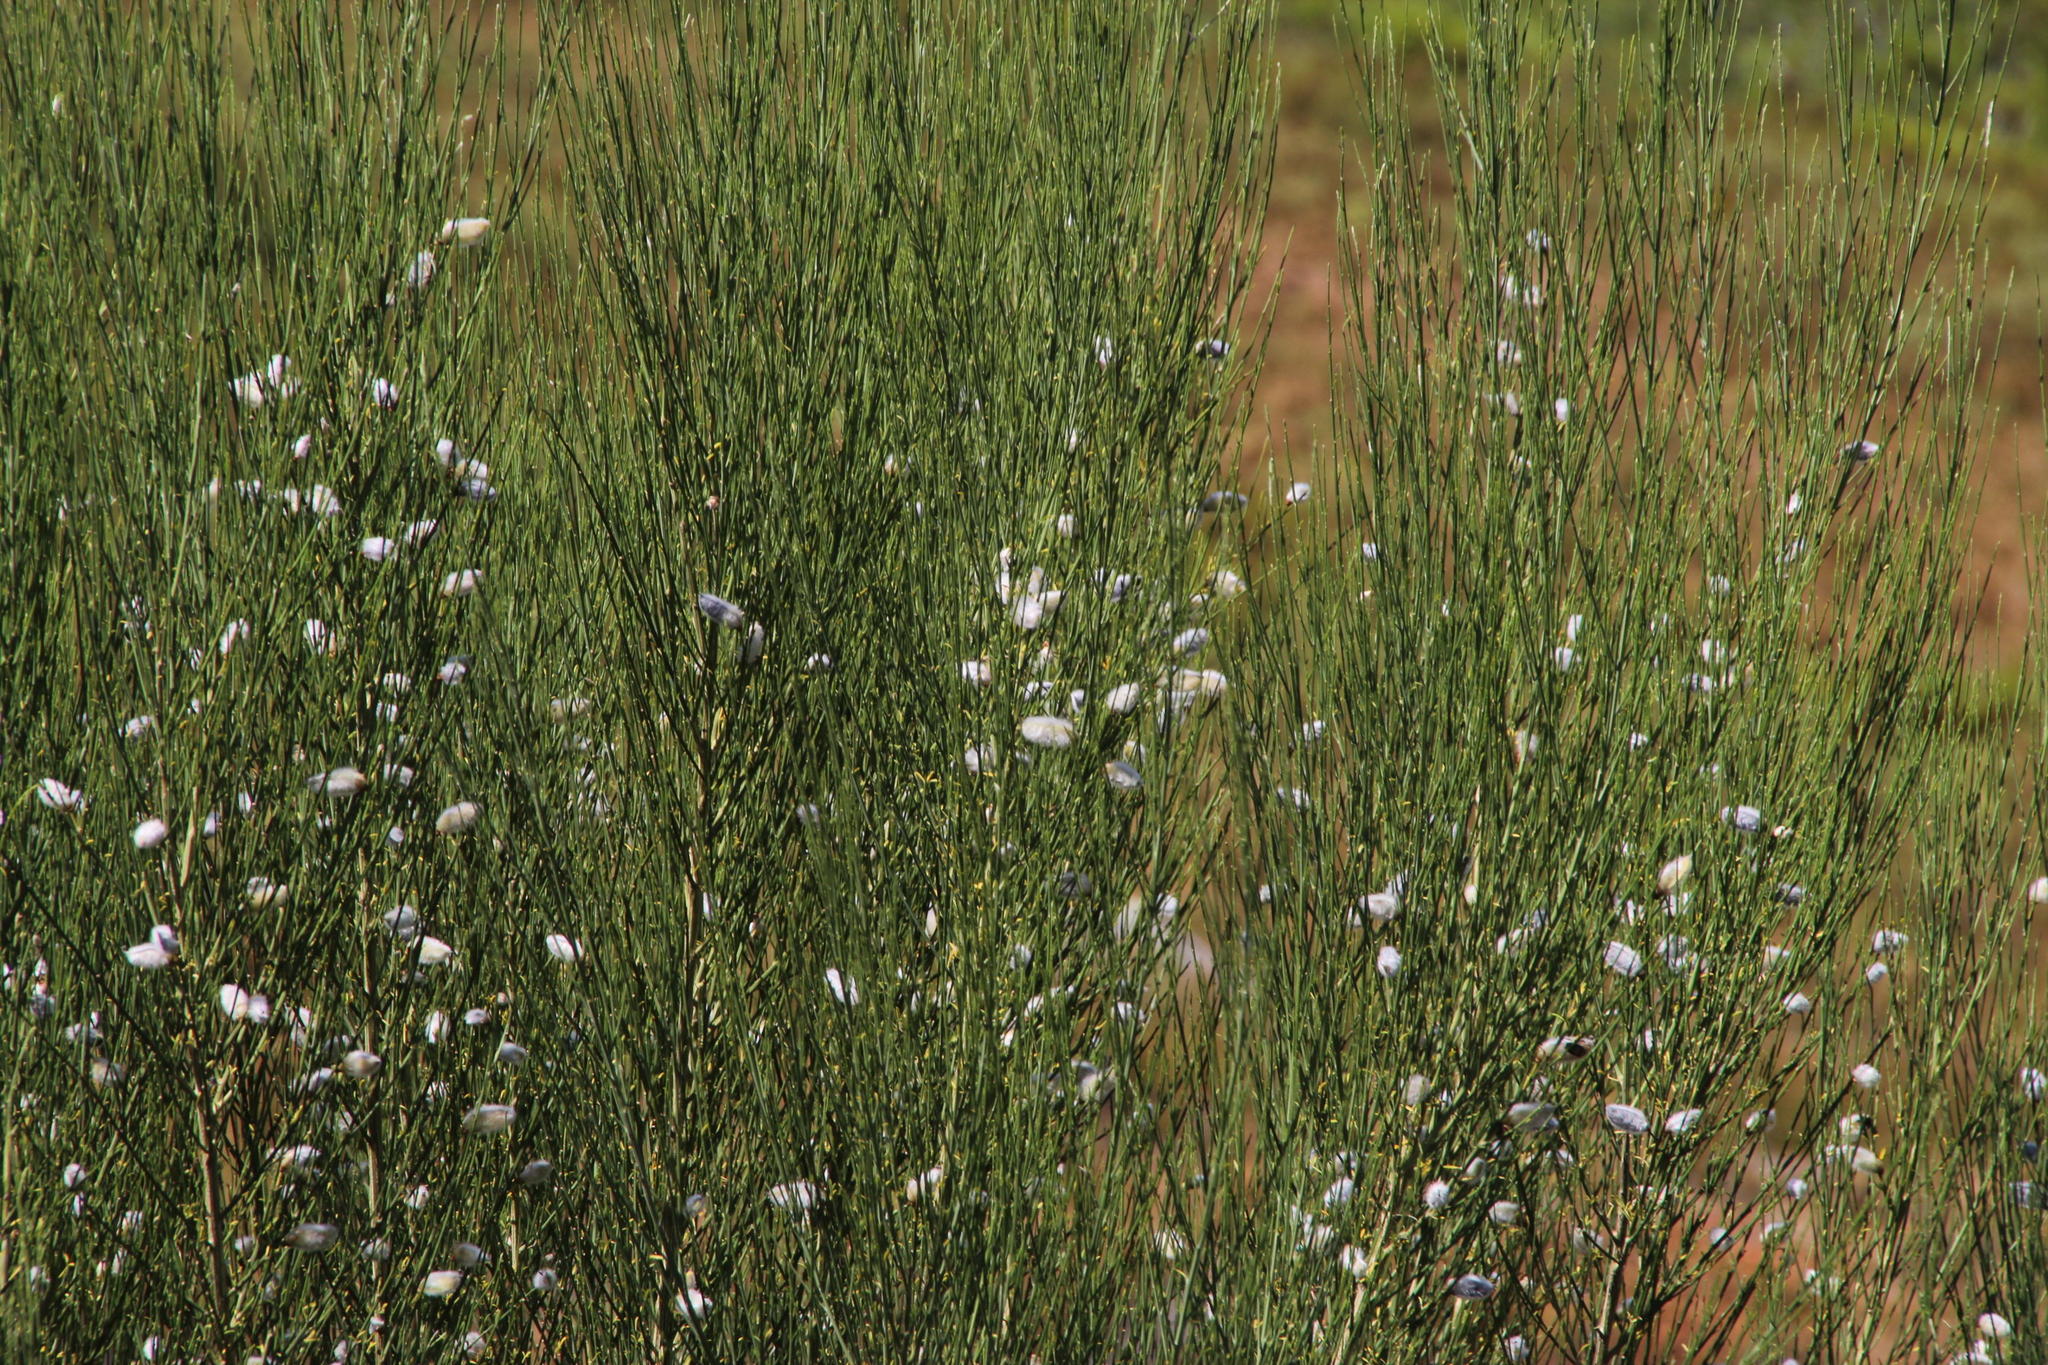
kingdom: Plantae
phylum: Tracheophyta
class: Magnoliopsida
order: Fabales
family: Fabaceae
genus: Cytisus
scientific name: Cytisus striatus
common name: Hairy-fruited broom
